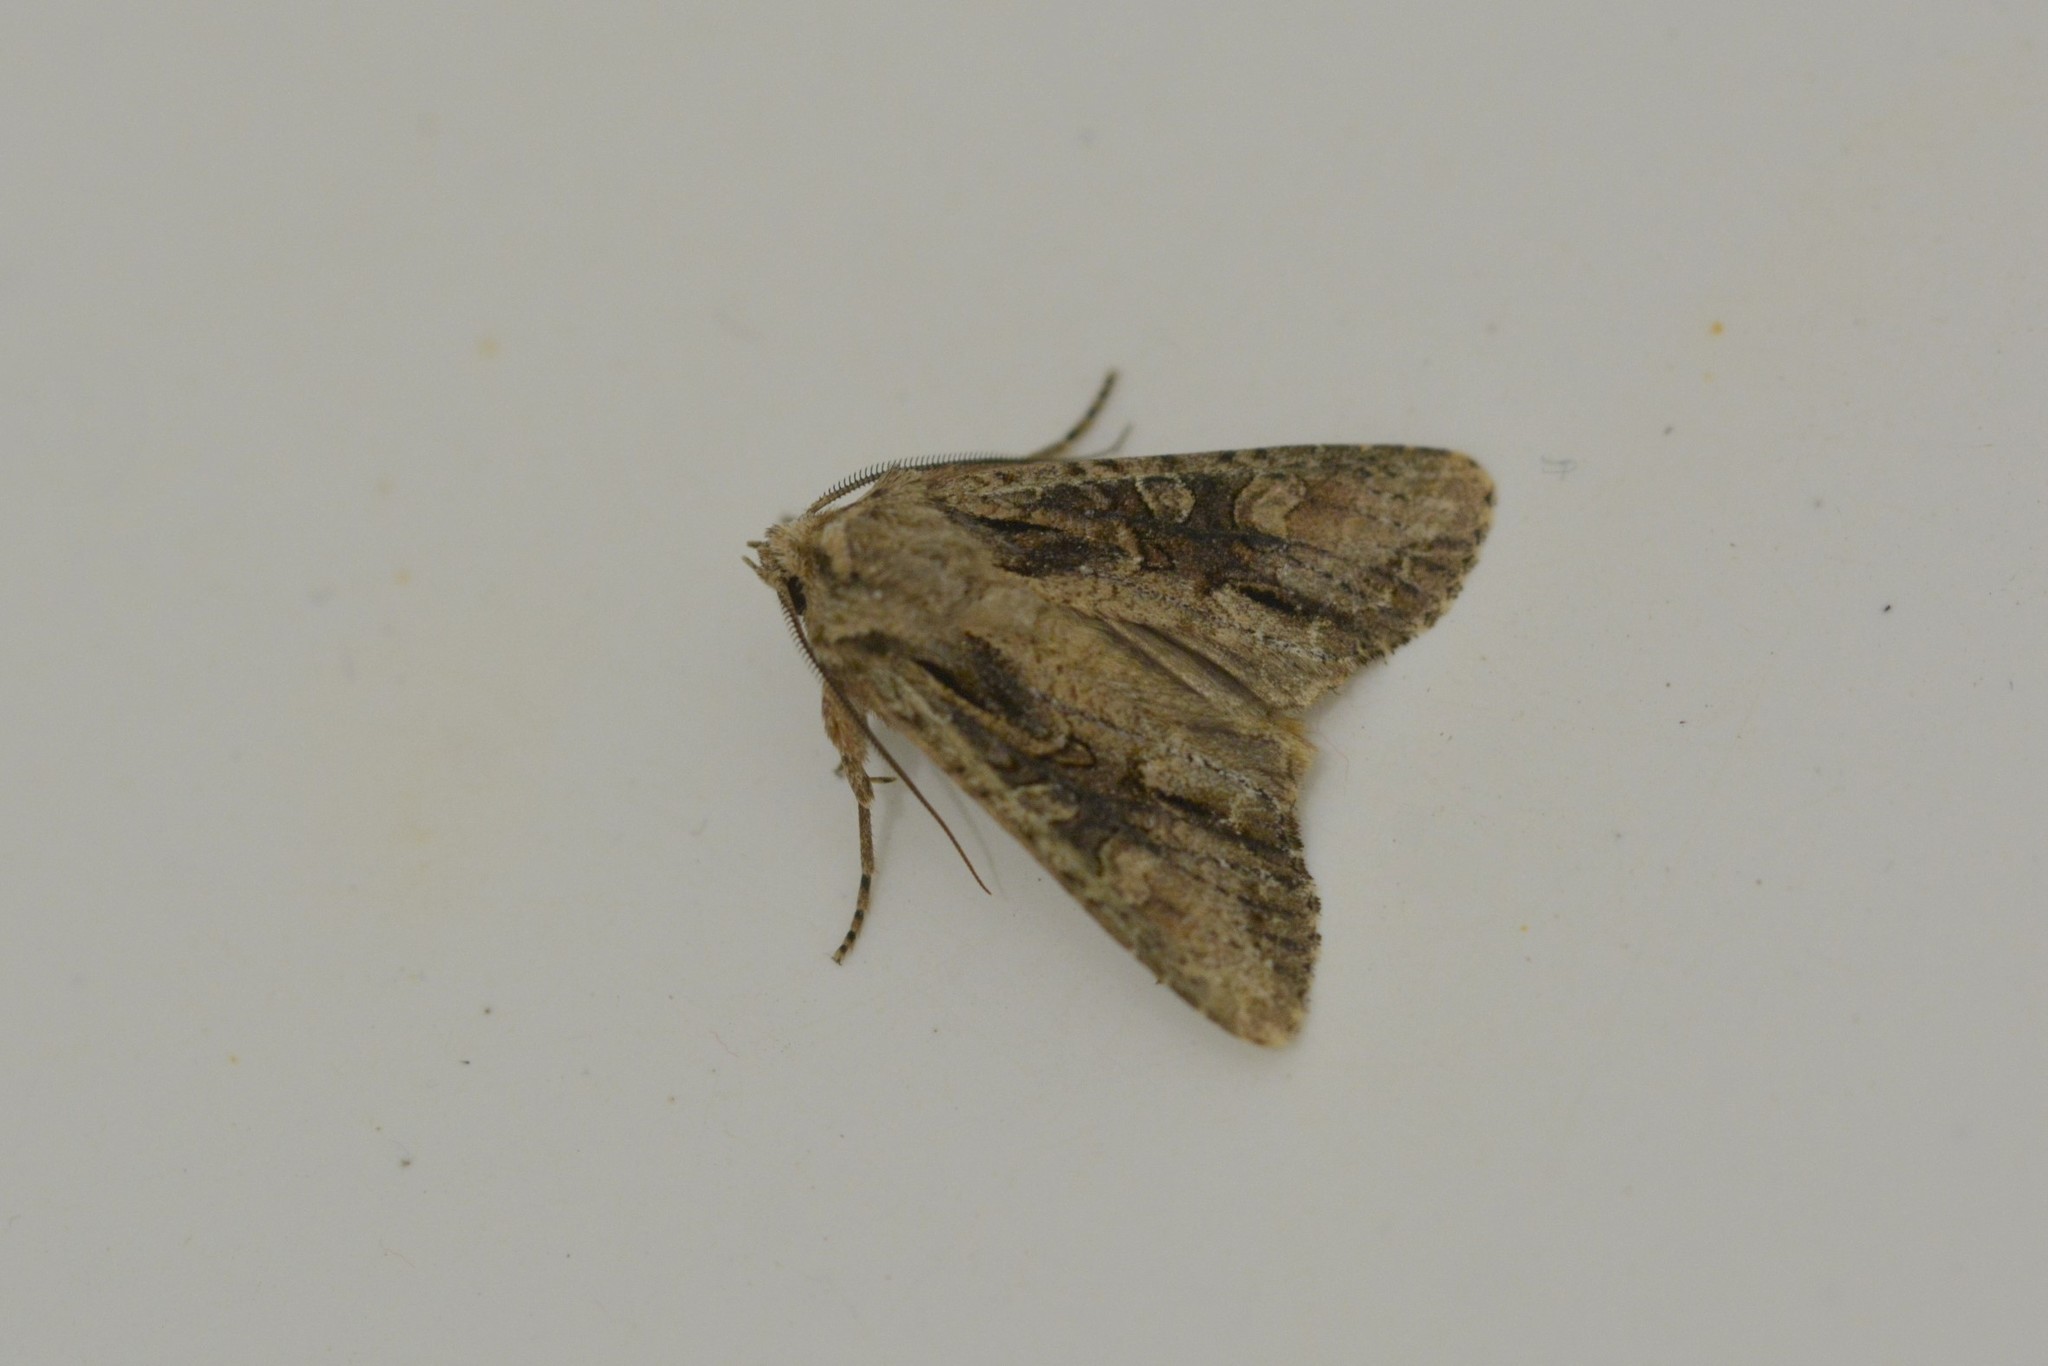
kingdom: Animalia
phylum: Arthropoda
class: Insecta
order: Lepidoptera
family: Noctuidae
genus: Ichneutica
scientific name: Ichneutica mutans
